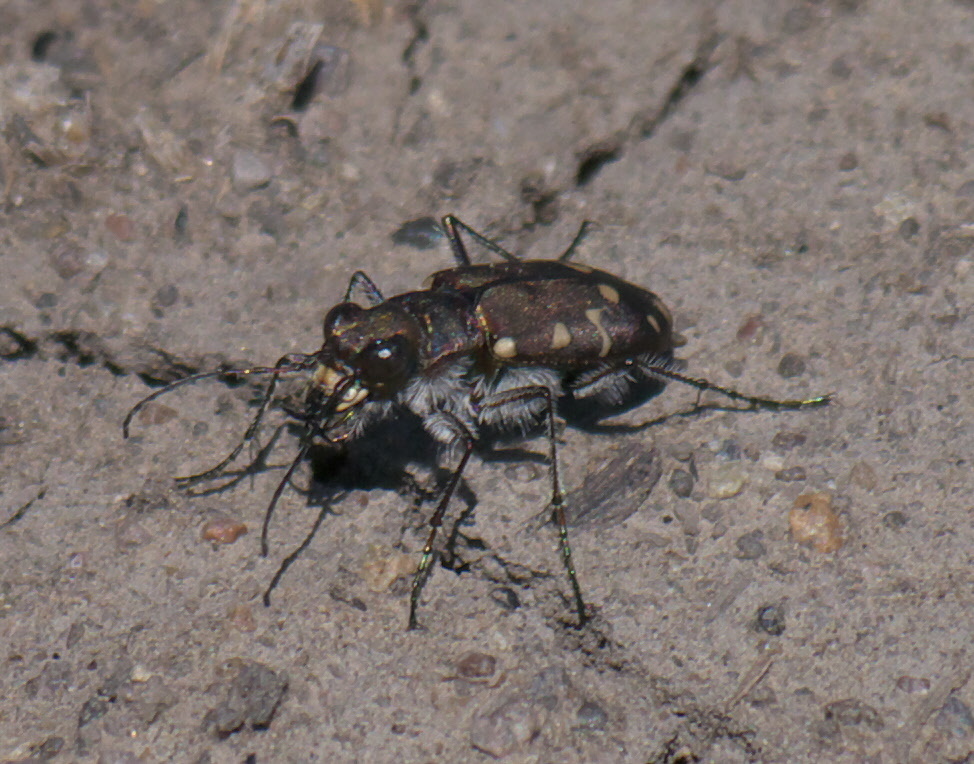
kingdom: Animalia
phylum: Arthropoda
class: Insecta
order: Coleoptera
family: Carabidae
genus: Cicindela
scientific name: Cicindela oregona
